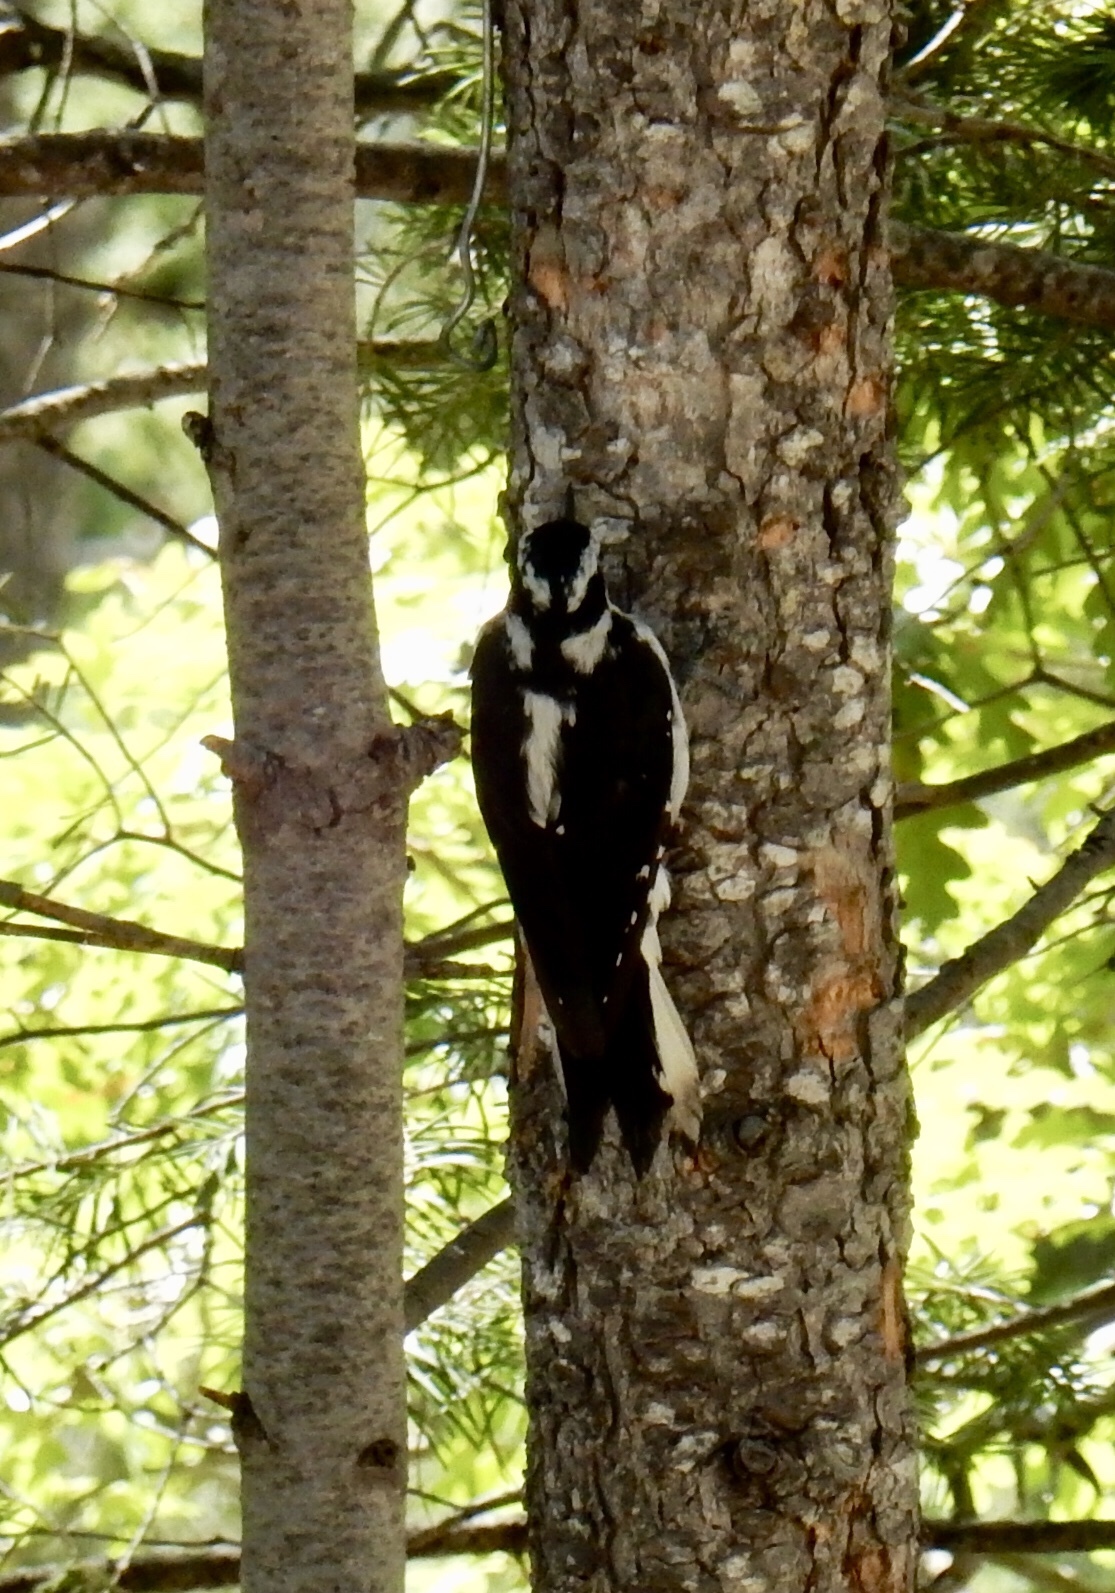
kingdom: Animalia
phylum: Chordata
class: Aves
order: Piciformes
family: Picidae
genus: Leuconotopicus
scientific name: Leuconotopicus villosus
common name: Hairy woodpecker
